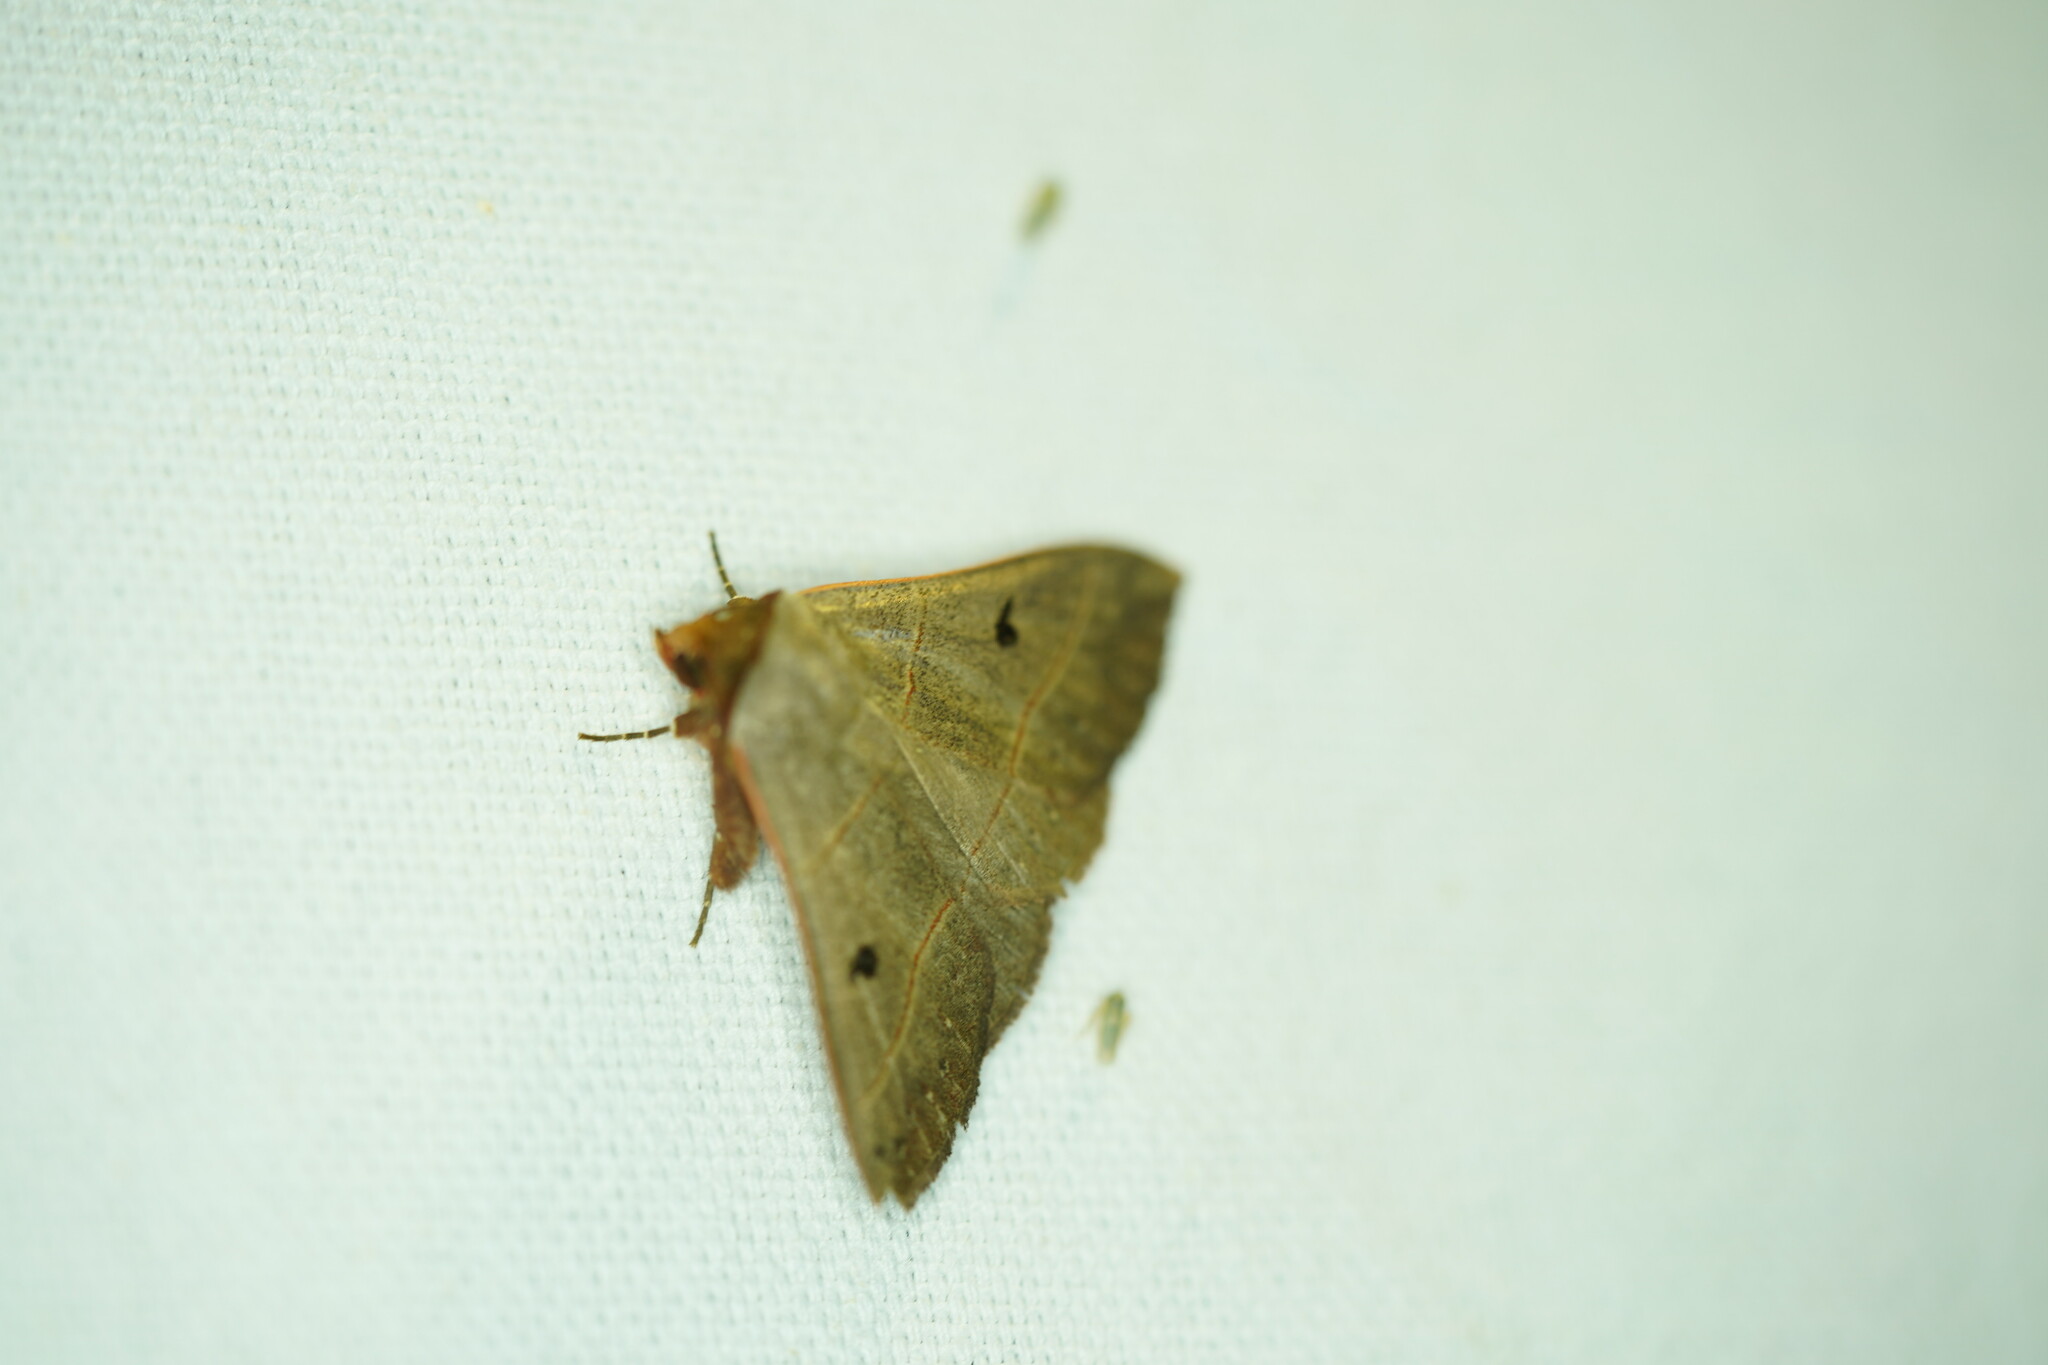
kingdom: Animalia
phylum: Arthropoda
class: Insecta
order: Lepidoptera
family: Erebidae
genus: Panopoda
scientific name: Panopoda rufimargo
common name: Red-lined panopoda moth
